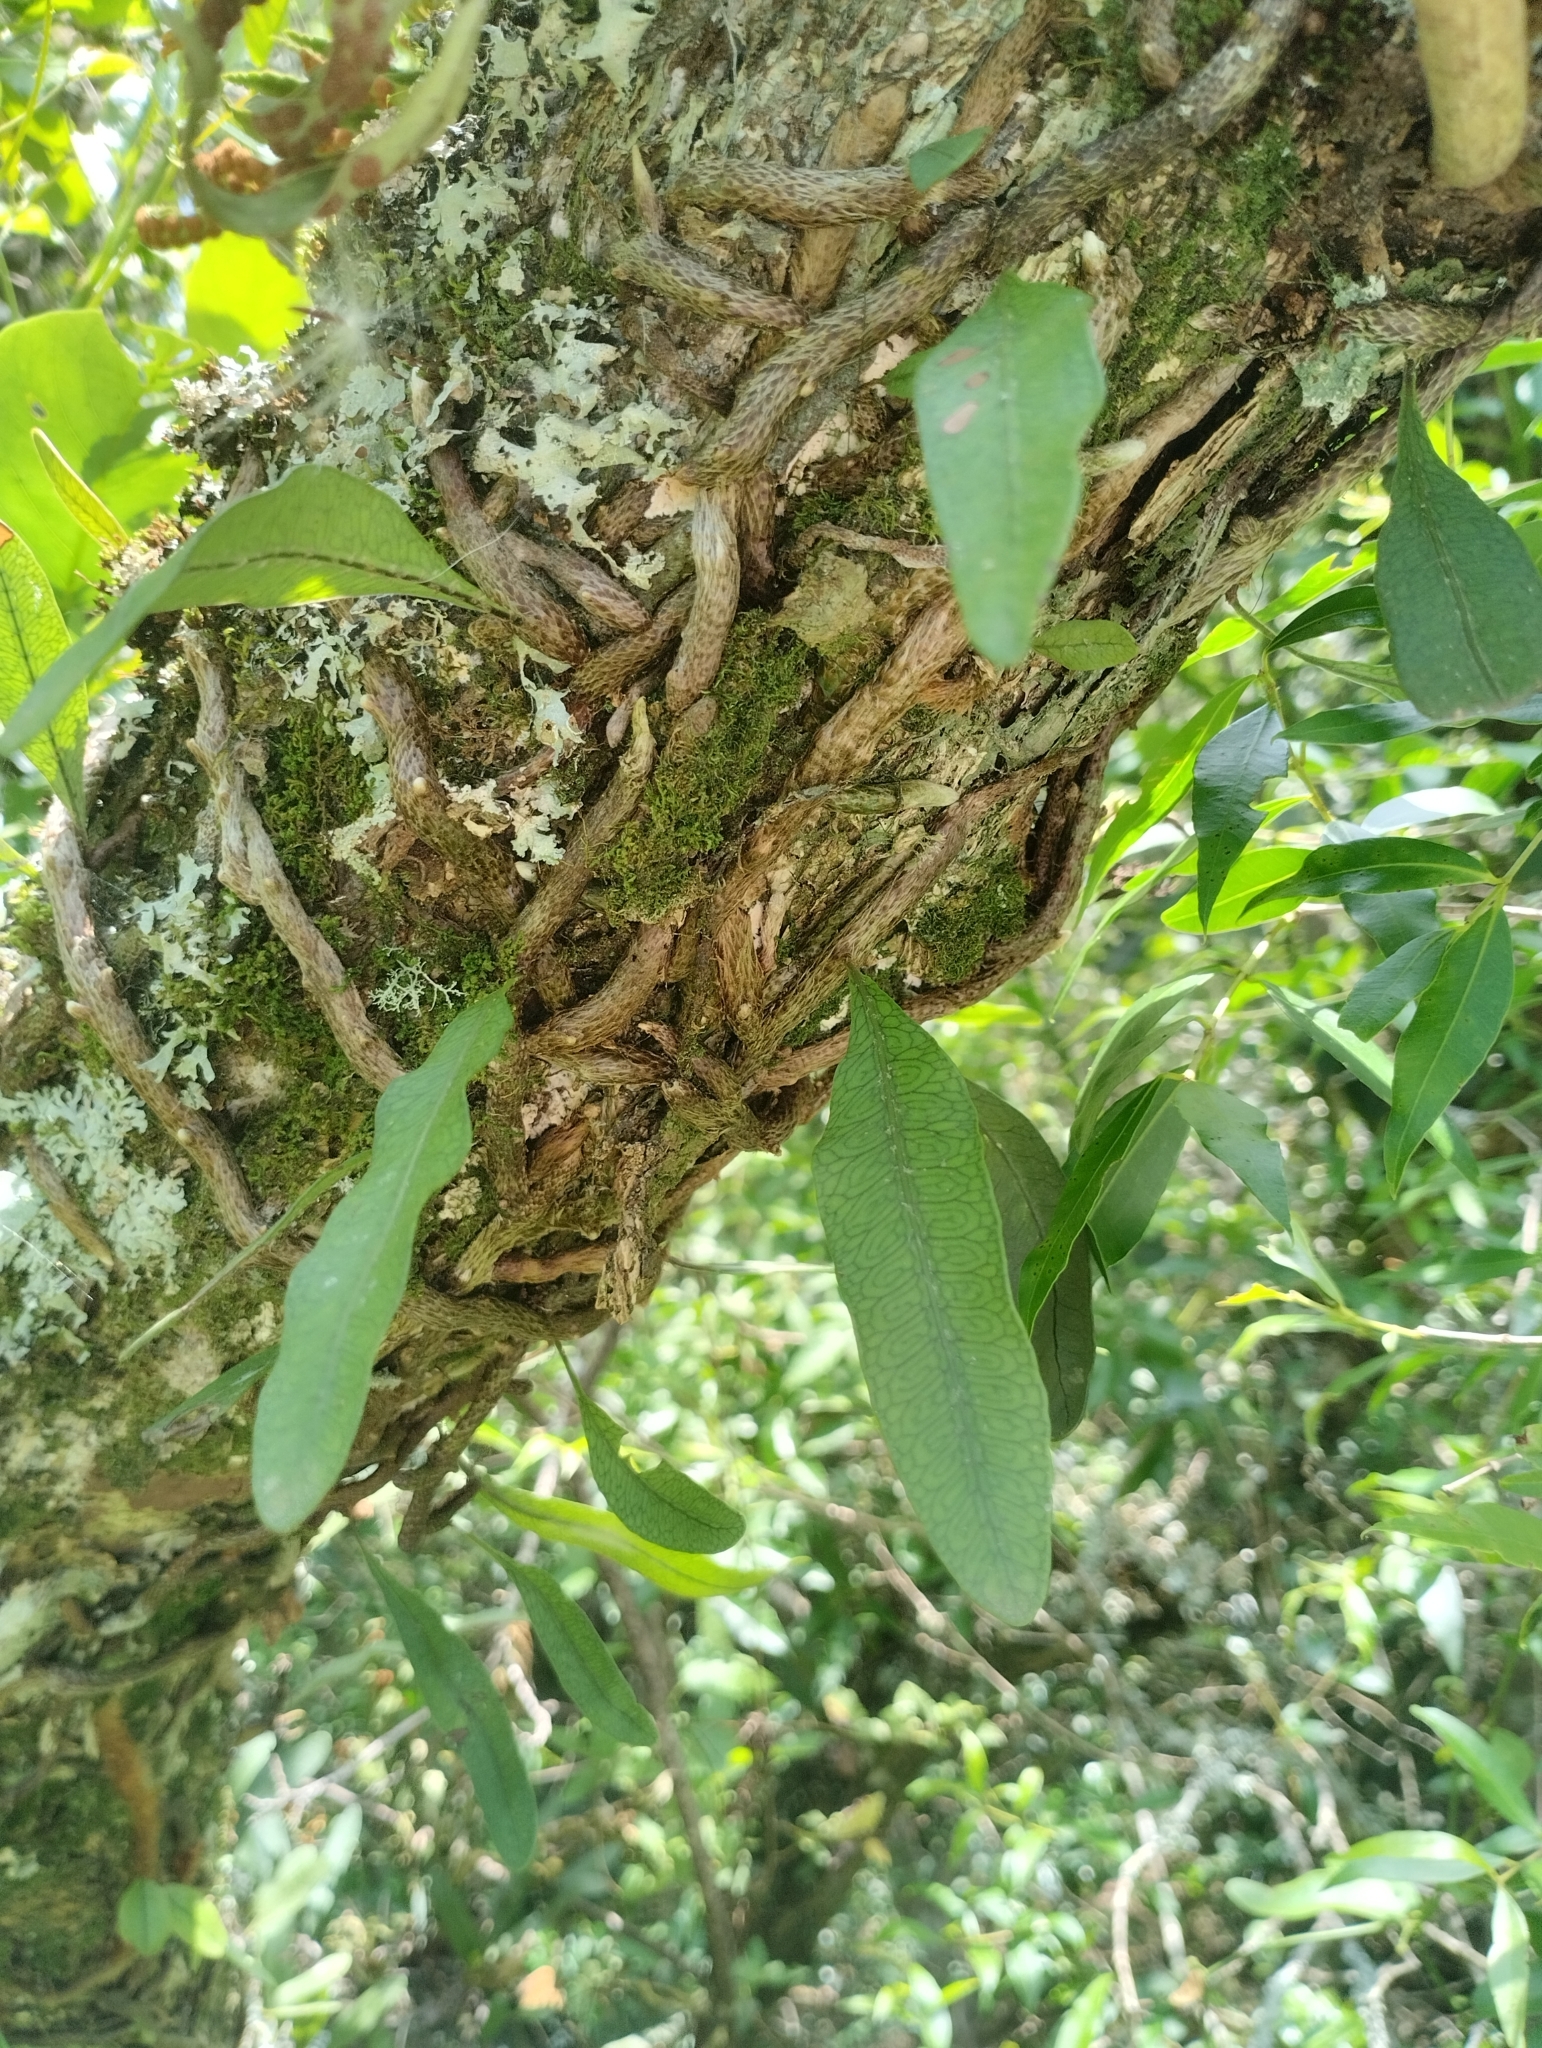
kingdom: Plantae
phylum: Tracheophyta
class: Polypodiopsida
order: Polypodiales
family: Polypodiaceae
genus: Microgramma
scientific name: Microgramma squamulosa
